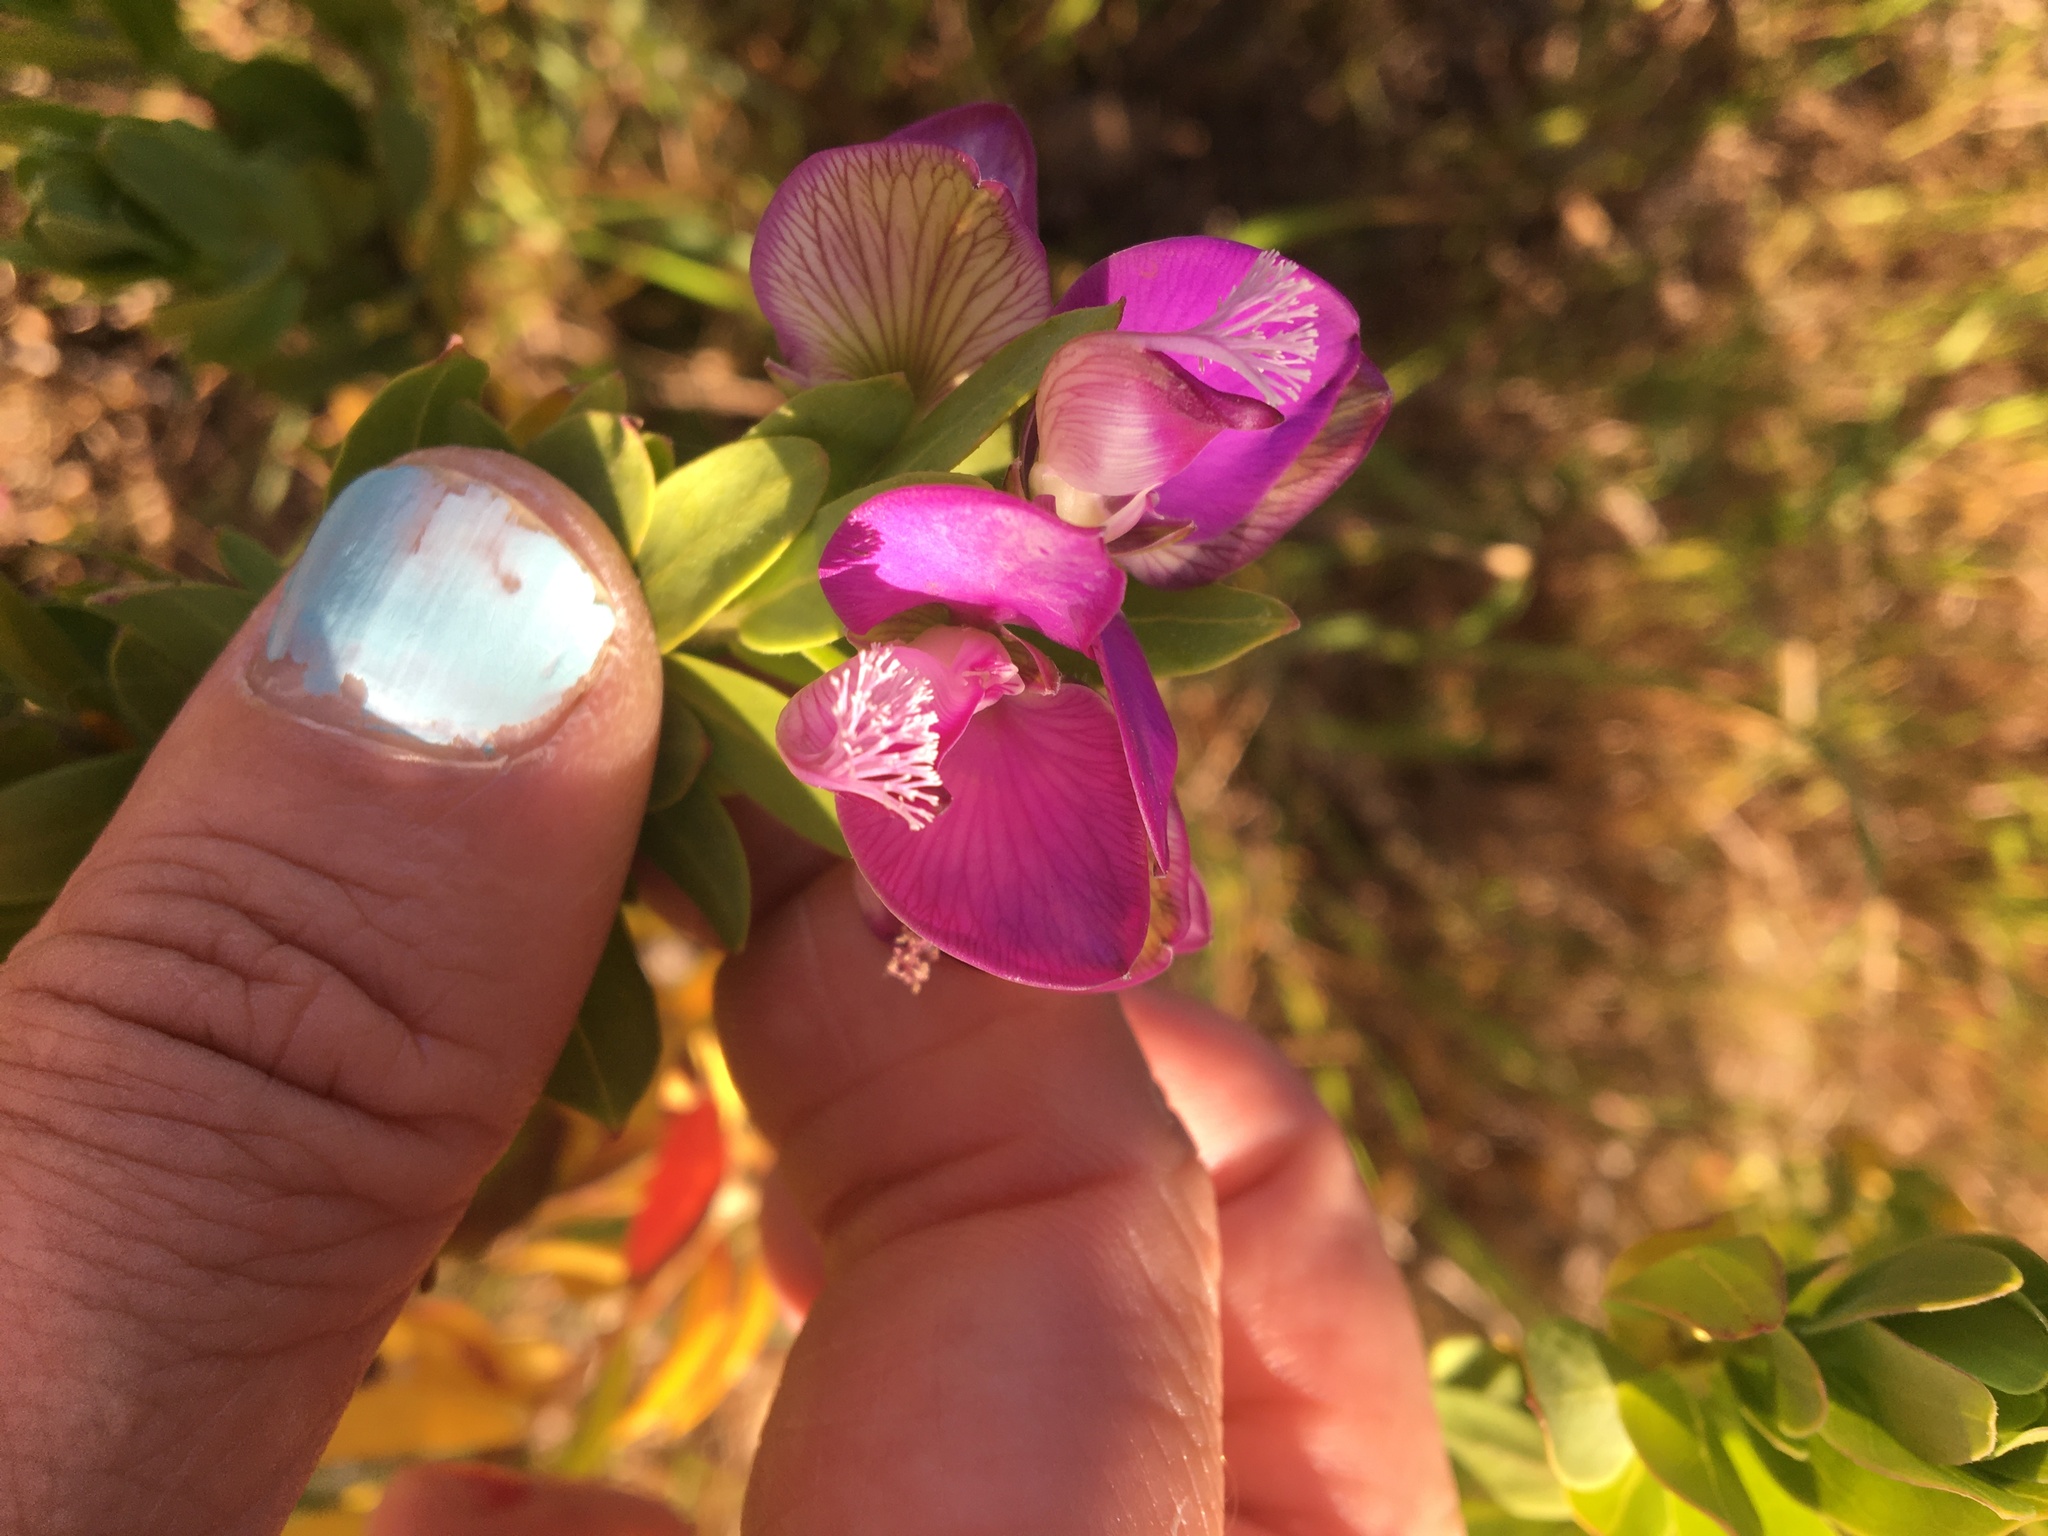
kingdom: Plantae
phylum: Tracheophyta
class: Magnoliopsida
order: Fabales
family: Polygalaceae
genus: Polygala
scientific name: Polygala myrtifolia
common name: Myrtle-leaf milkwort
